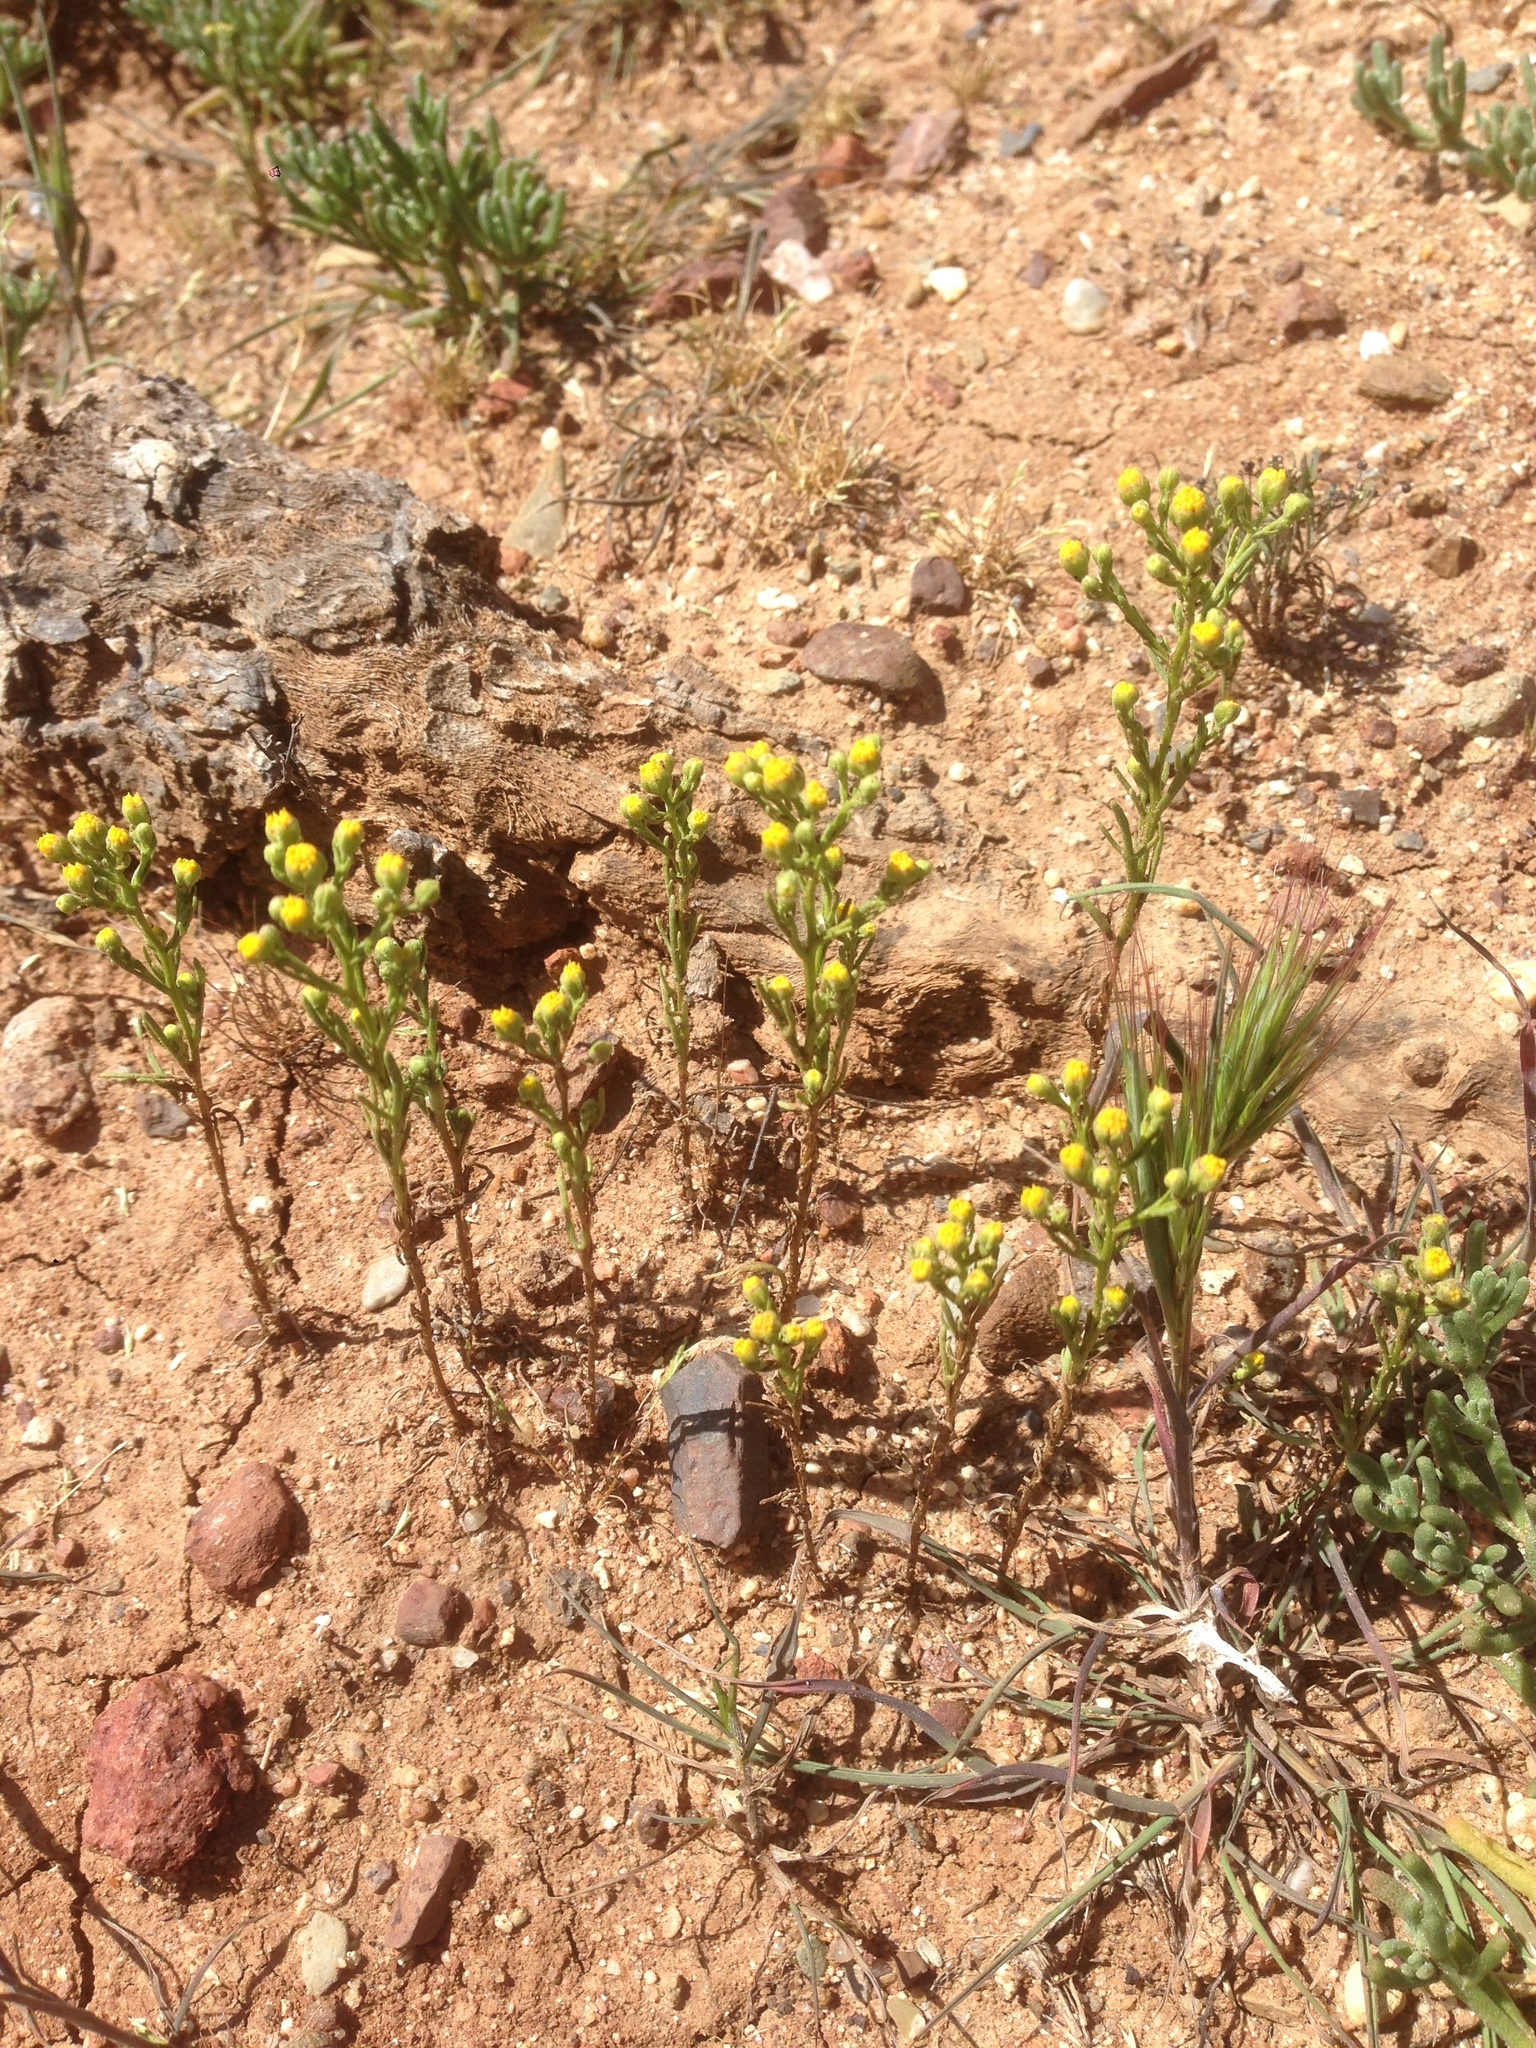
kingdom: Plantae
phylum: Tracheophyta
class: Magnoliopsida
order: Asterales
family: Asteraceae
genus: Amblyopappus
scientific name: Amblyopappus pusillus
